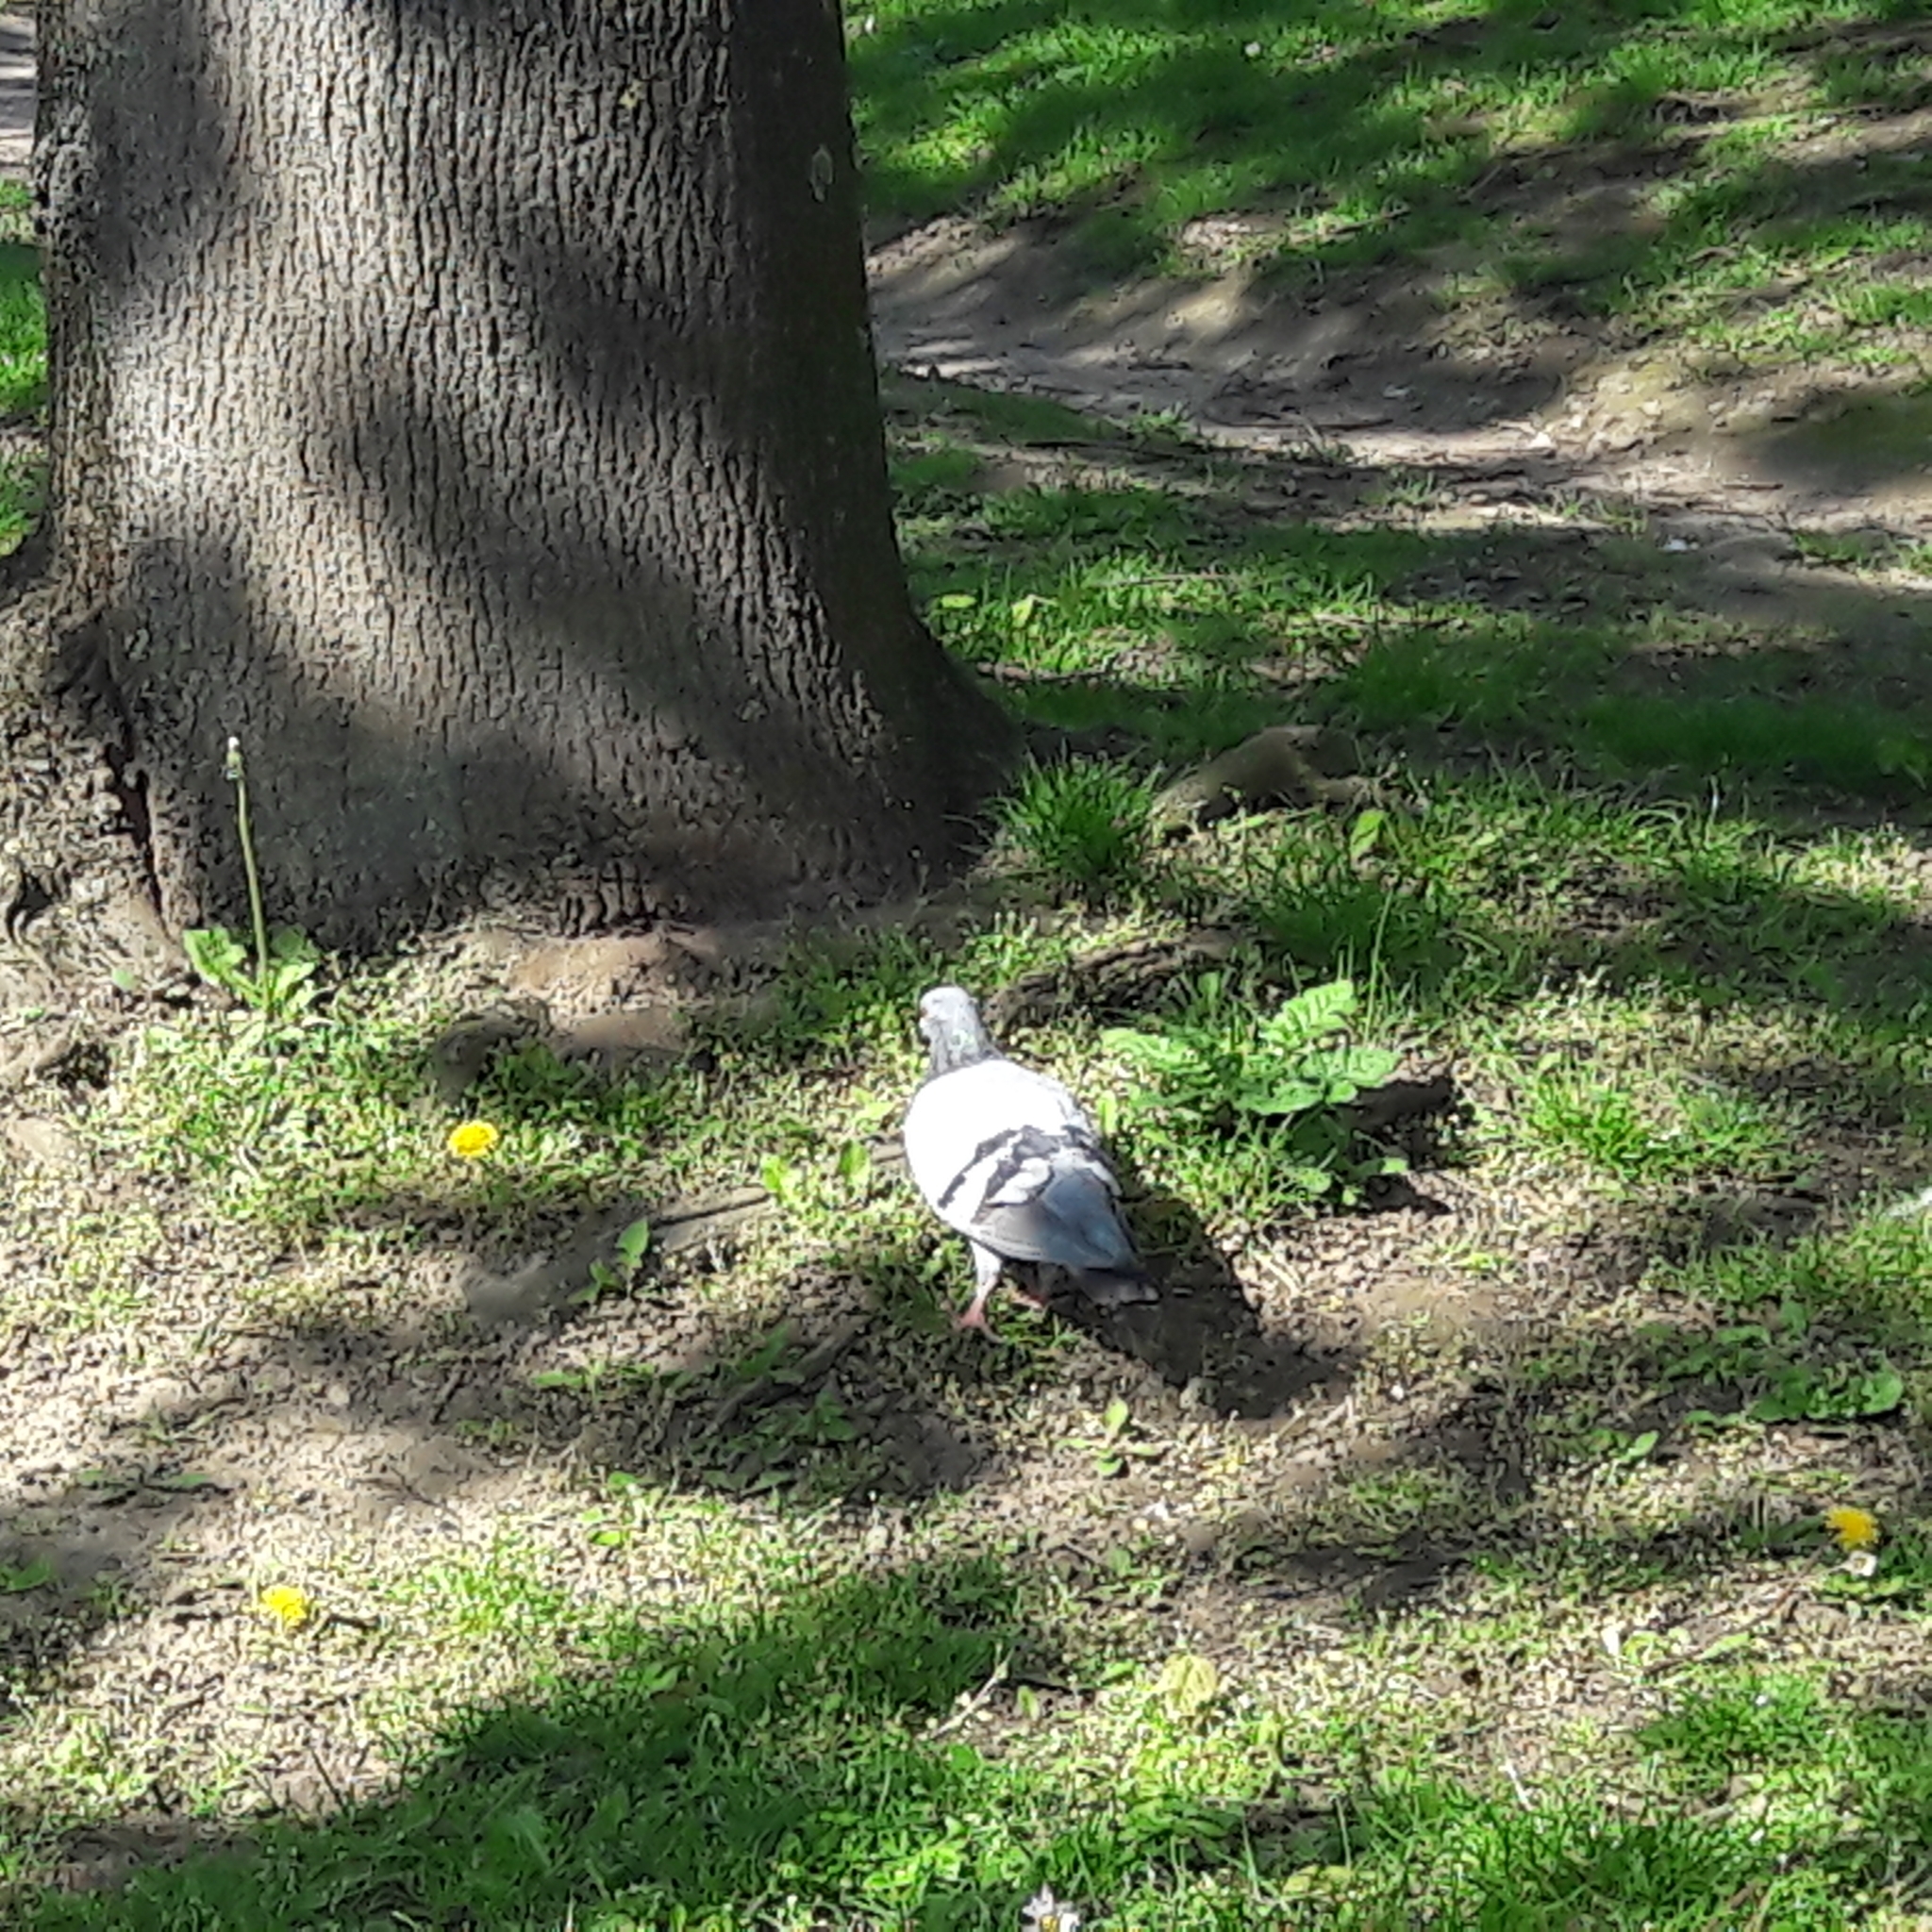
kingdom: Animalia
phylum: Chordata
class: Aves
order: Columbiformes
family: Columbidae
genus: Columba
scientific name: Columba livia
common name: Rock pigeon
